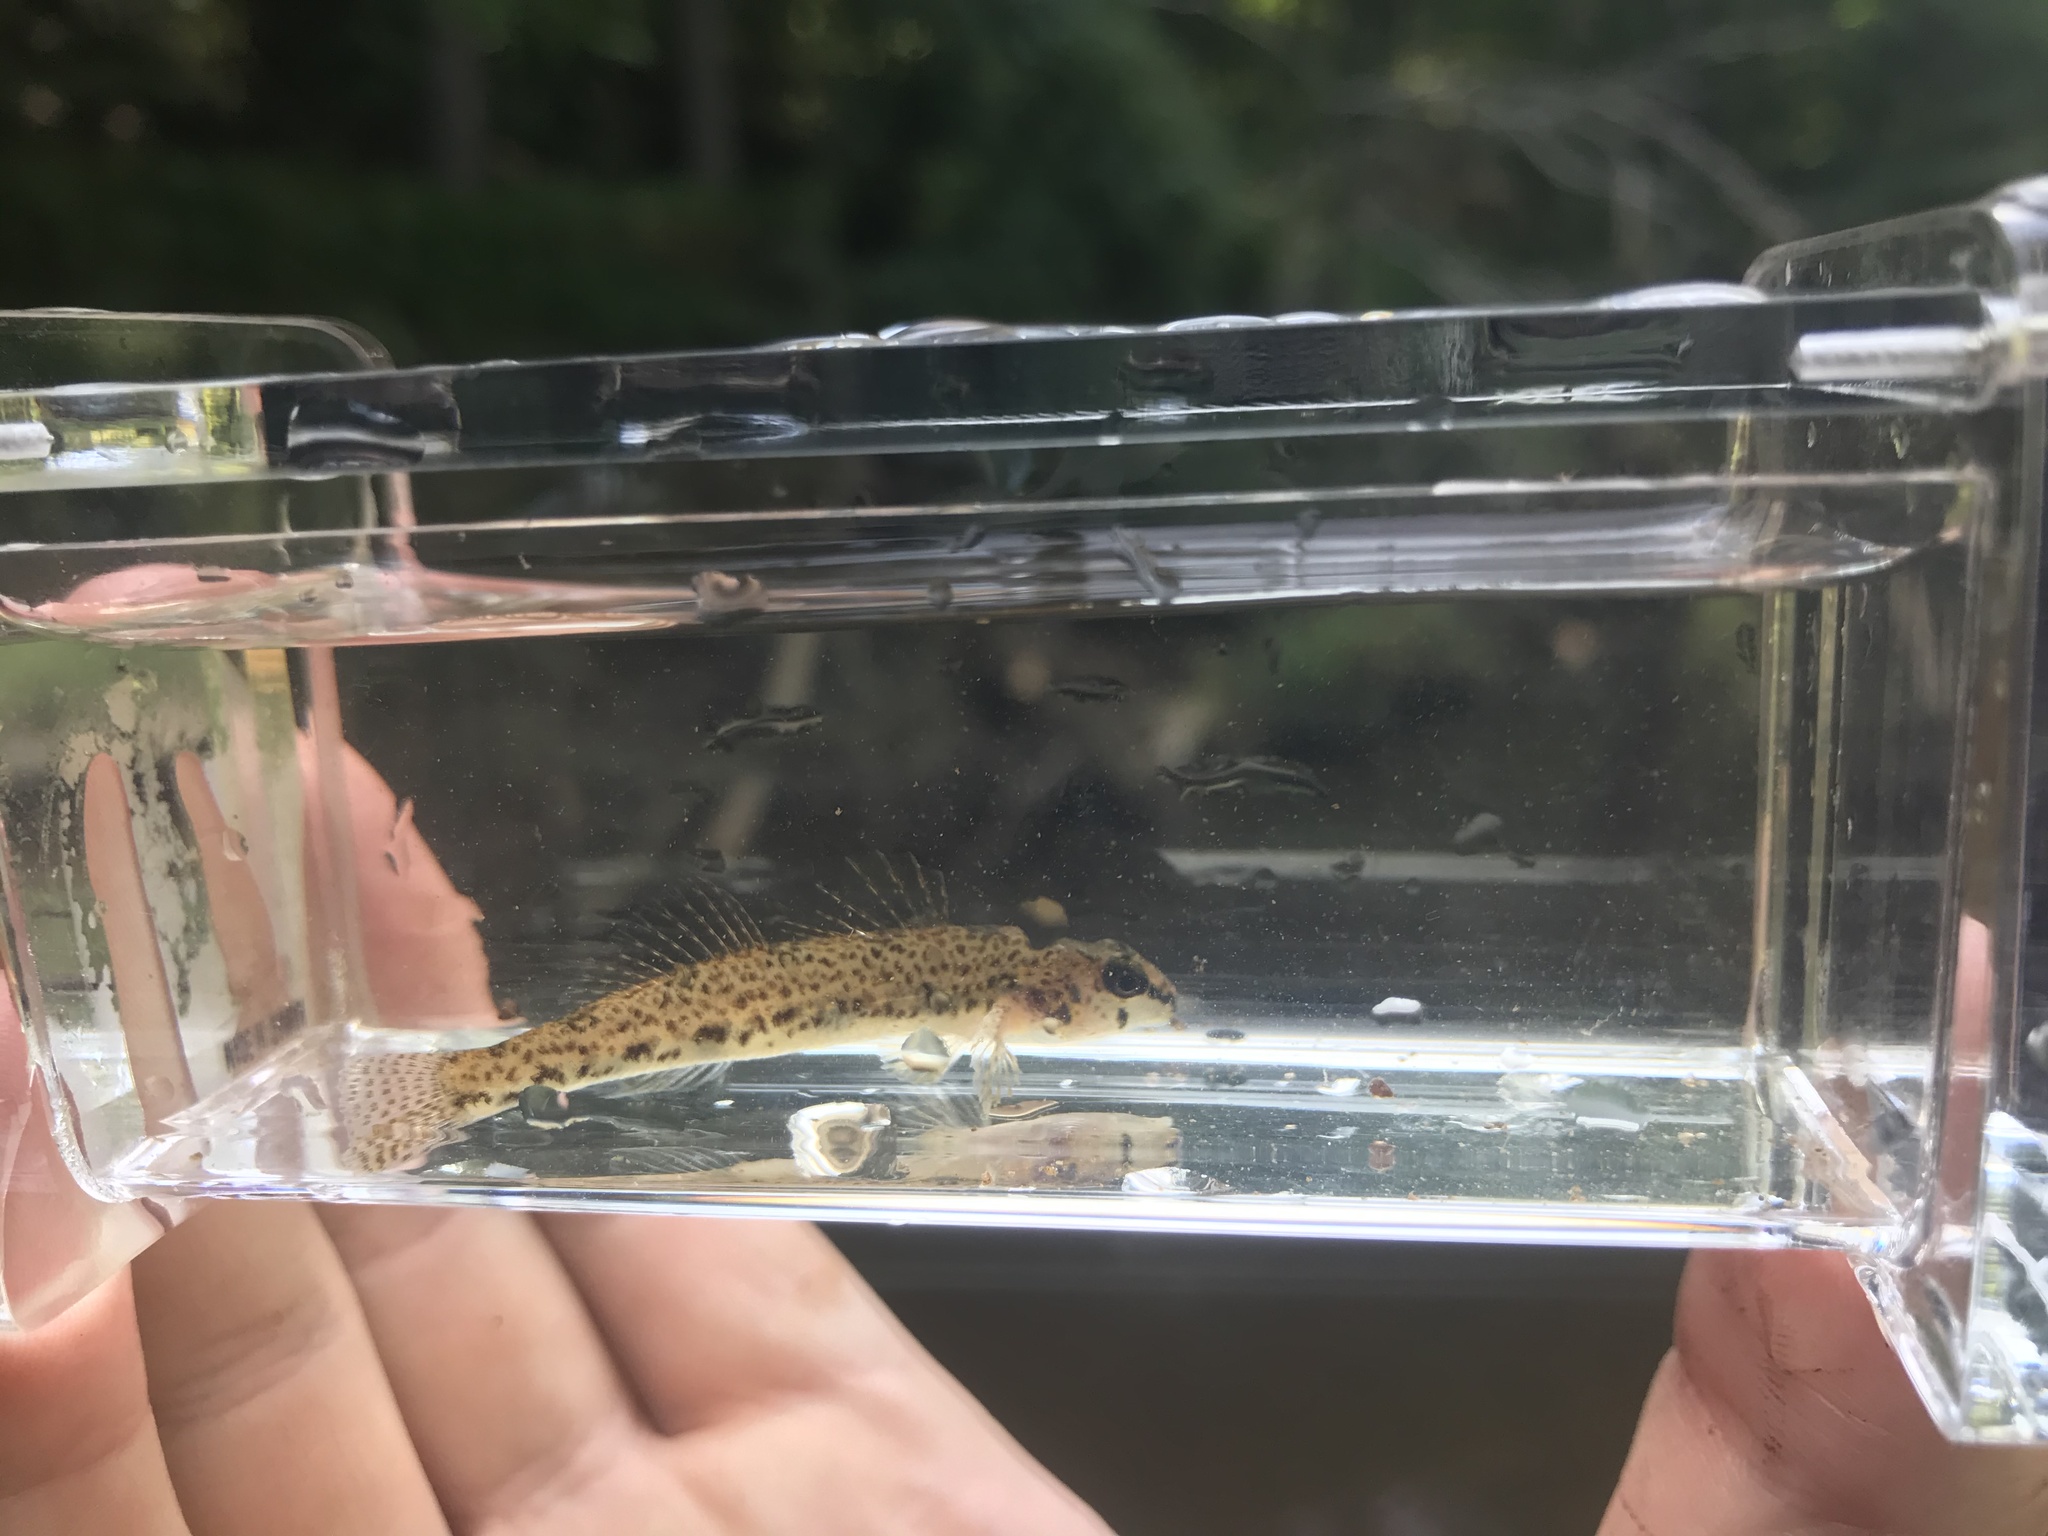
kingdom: Animalia
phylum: Chordata
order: Perciformes
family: Percidae
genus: Etheostoma
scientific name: Etheostoma olmstedi
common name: Tessellated darter
